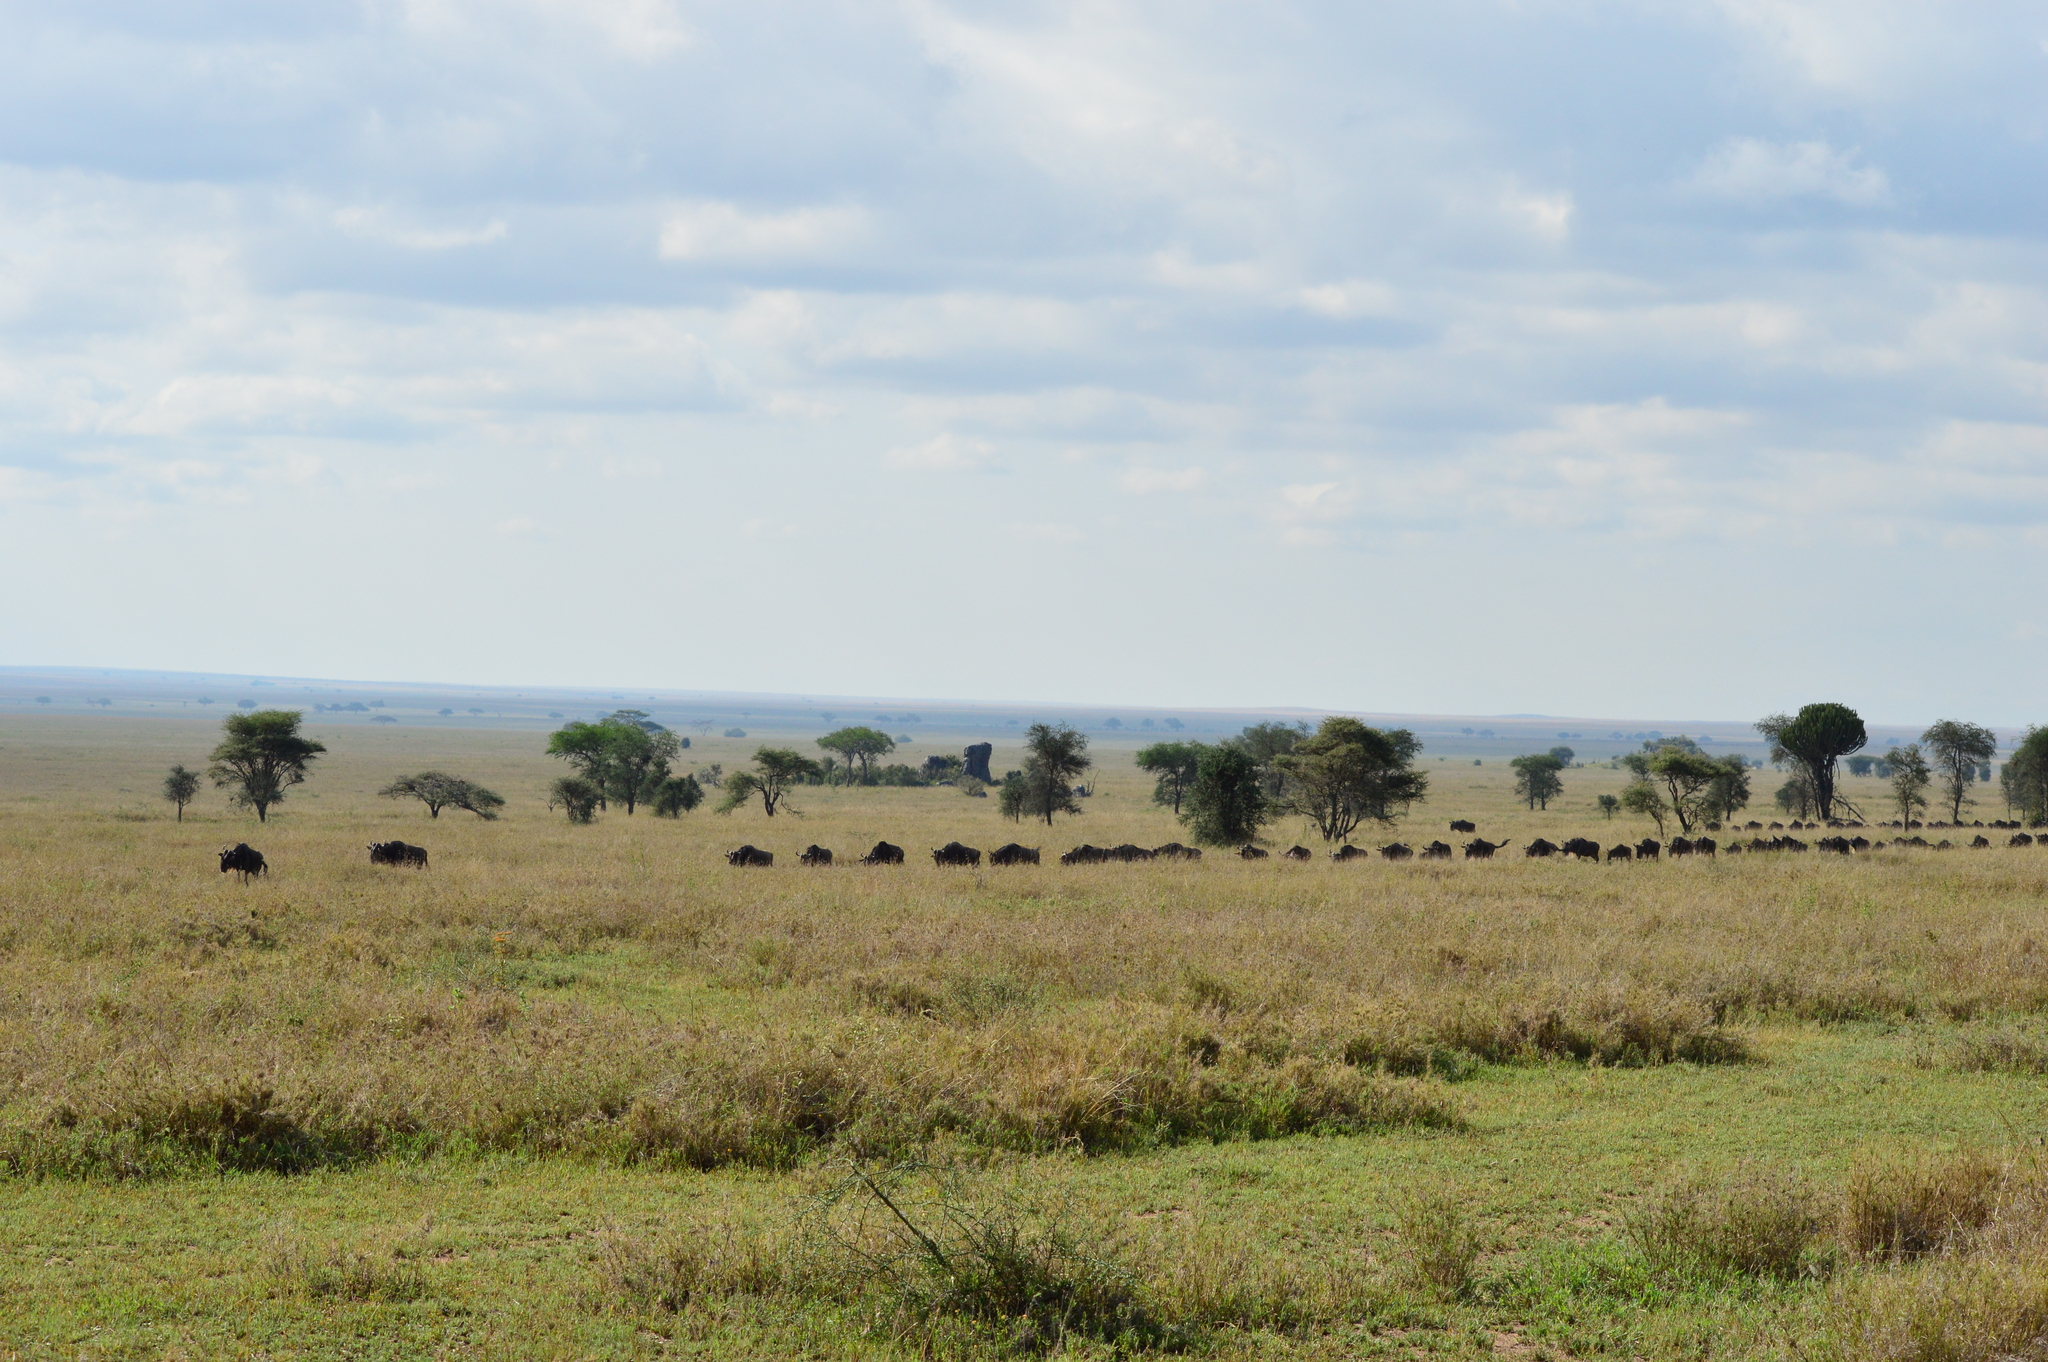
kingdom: Animalia
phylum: Chordata
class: Mammalia
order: Artiodactyla
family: Bovidae
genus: Connochaetes
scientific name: Connochaetes taurinus
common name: Blue wildebeest
